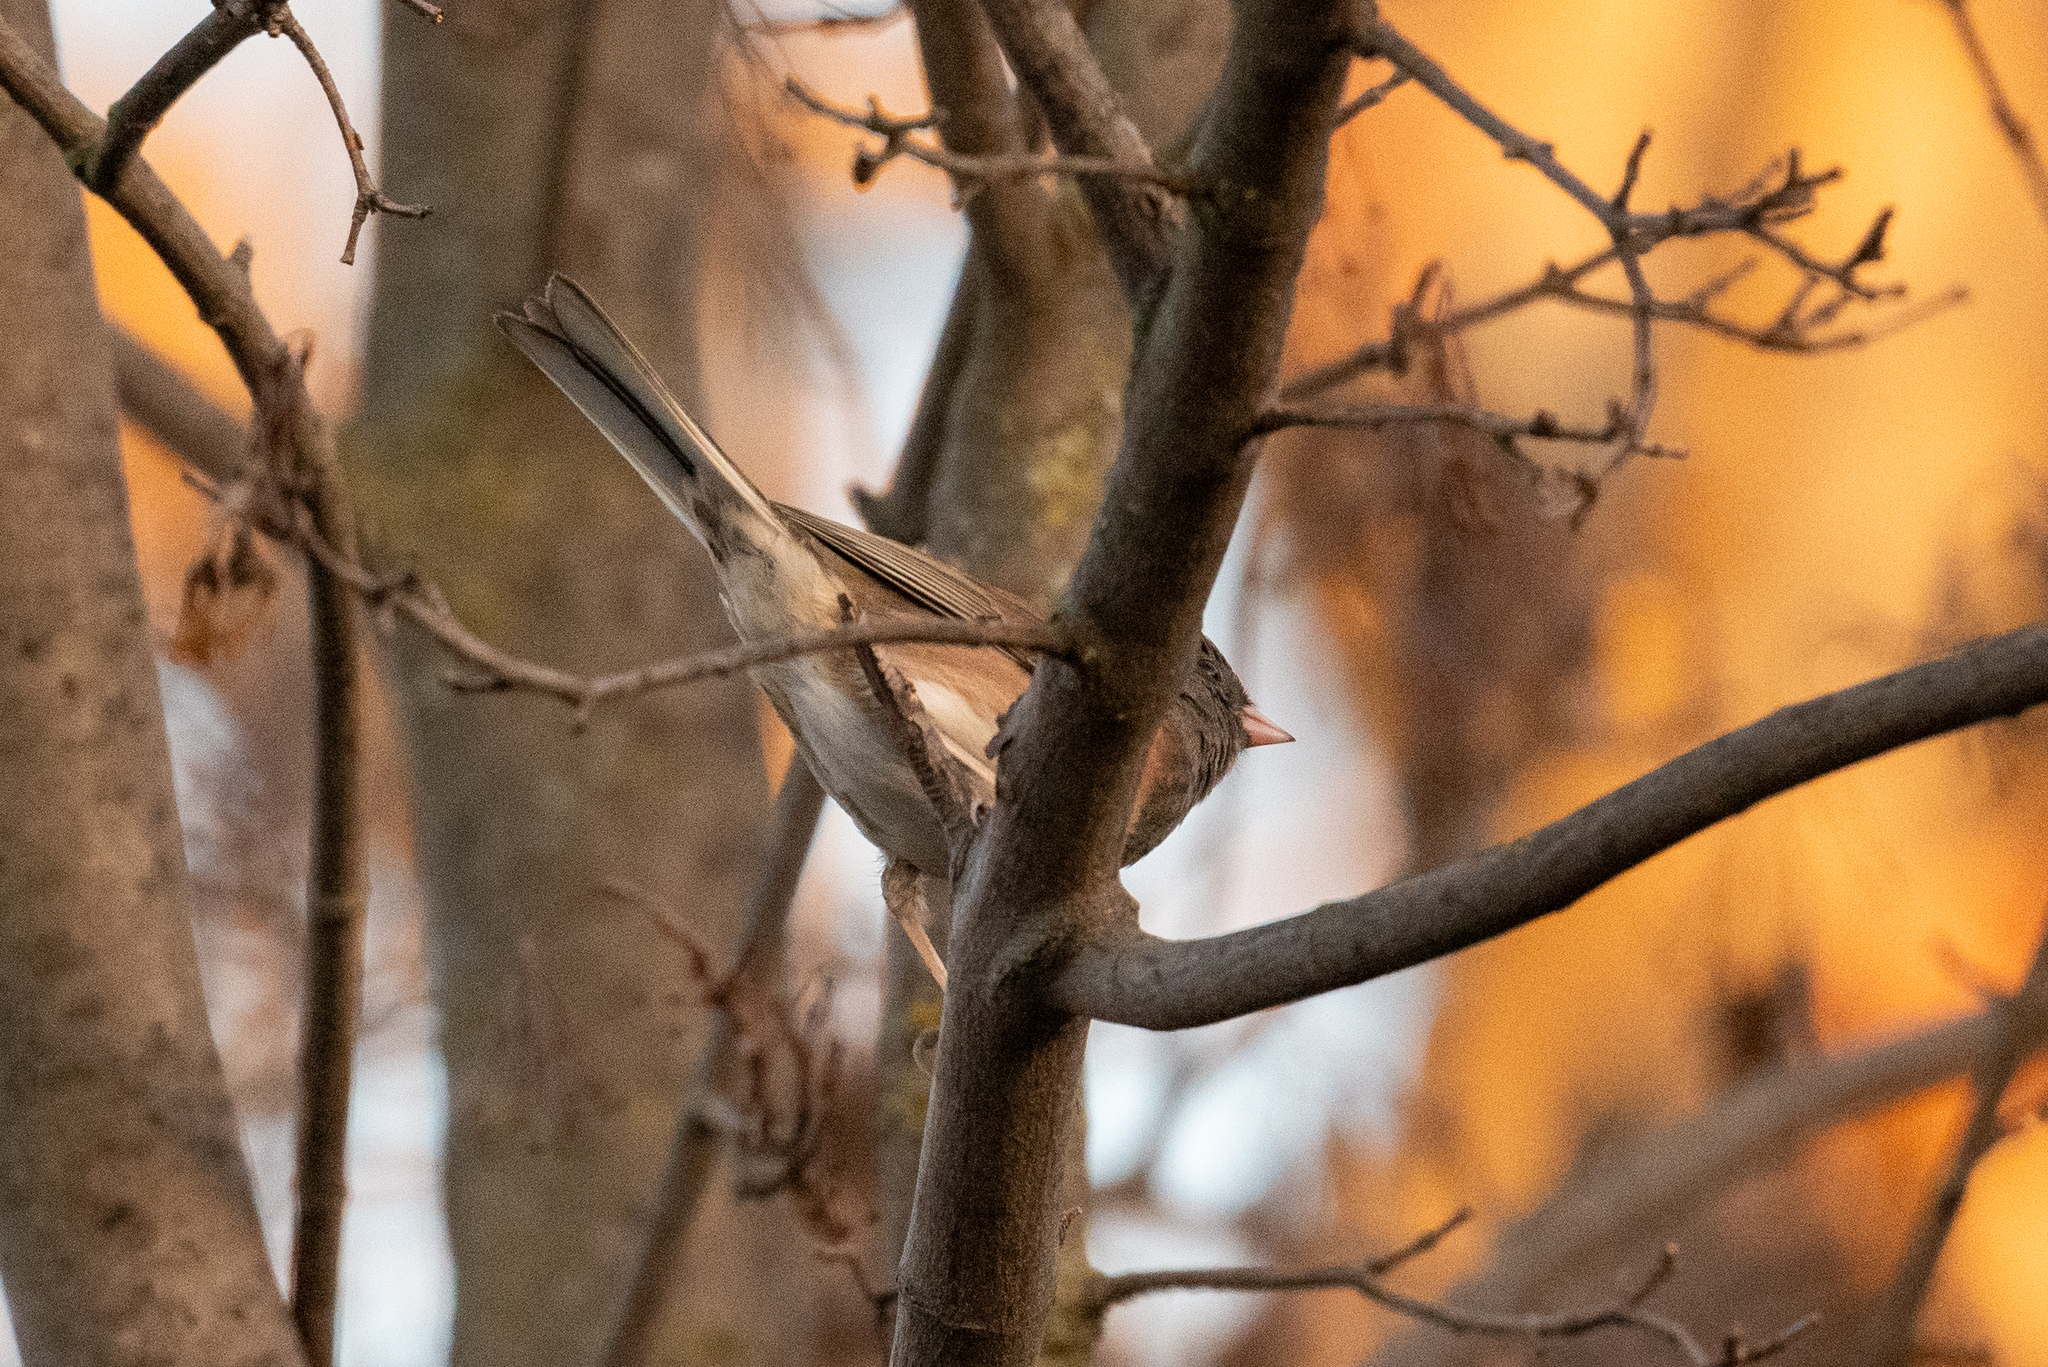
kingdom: Animalia
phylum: Chordata
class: Aves
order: Passeriformes
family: Passerellidae
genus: Junco
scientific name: Junco hyemalis
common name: Dark-eyed junco
